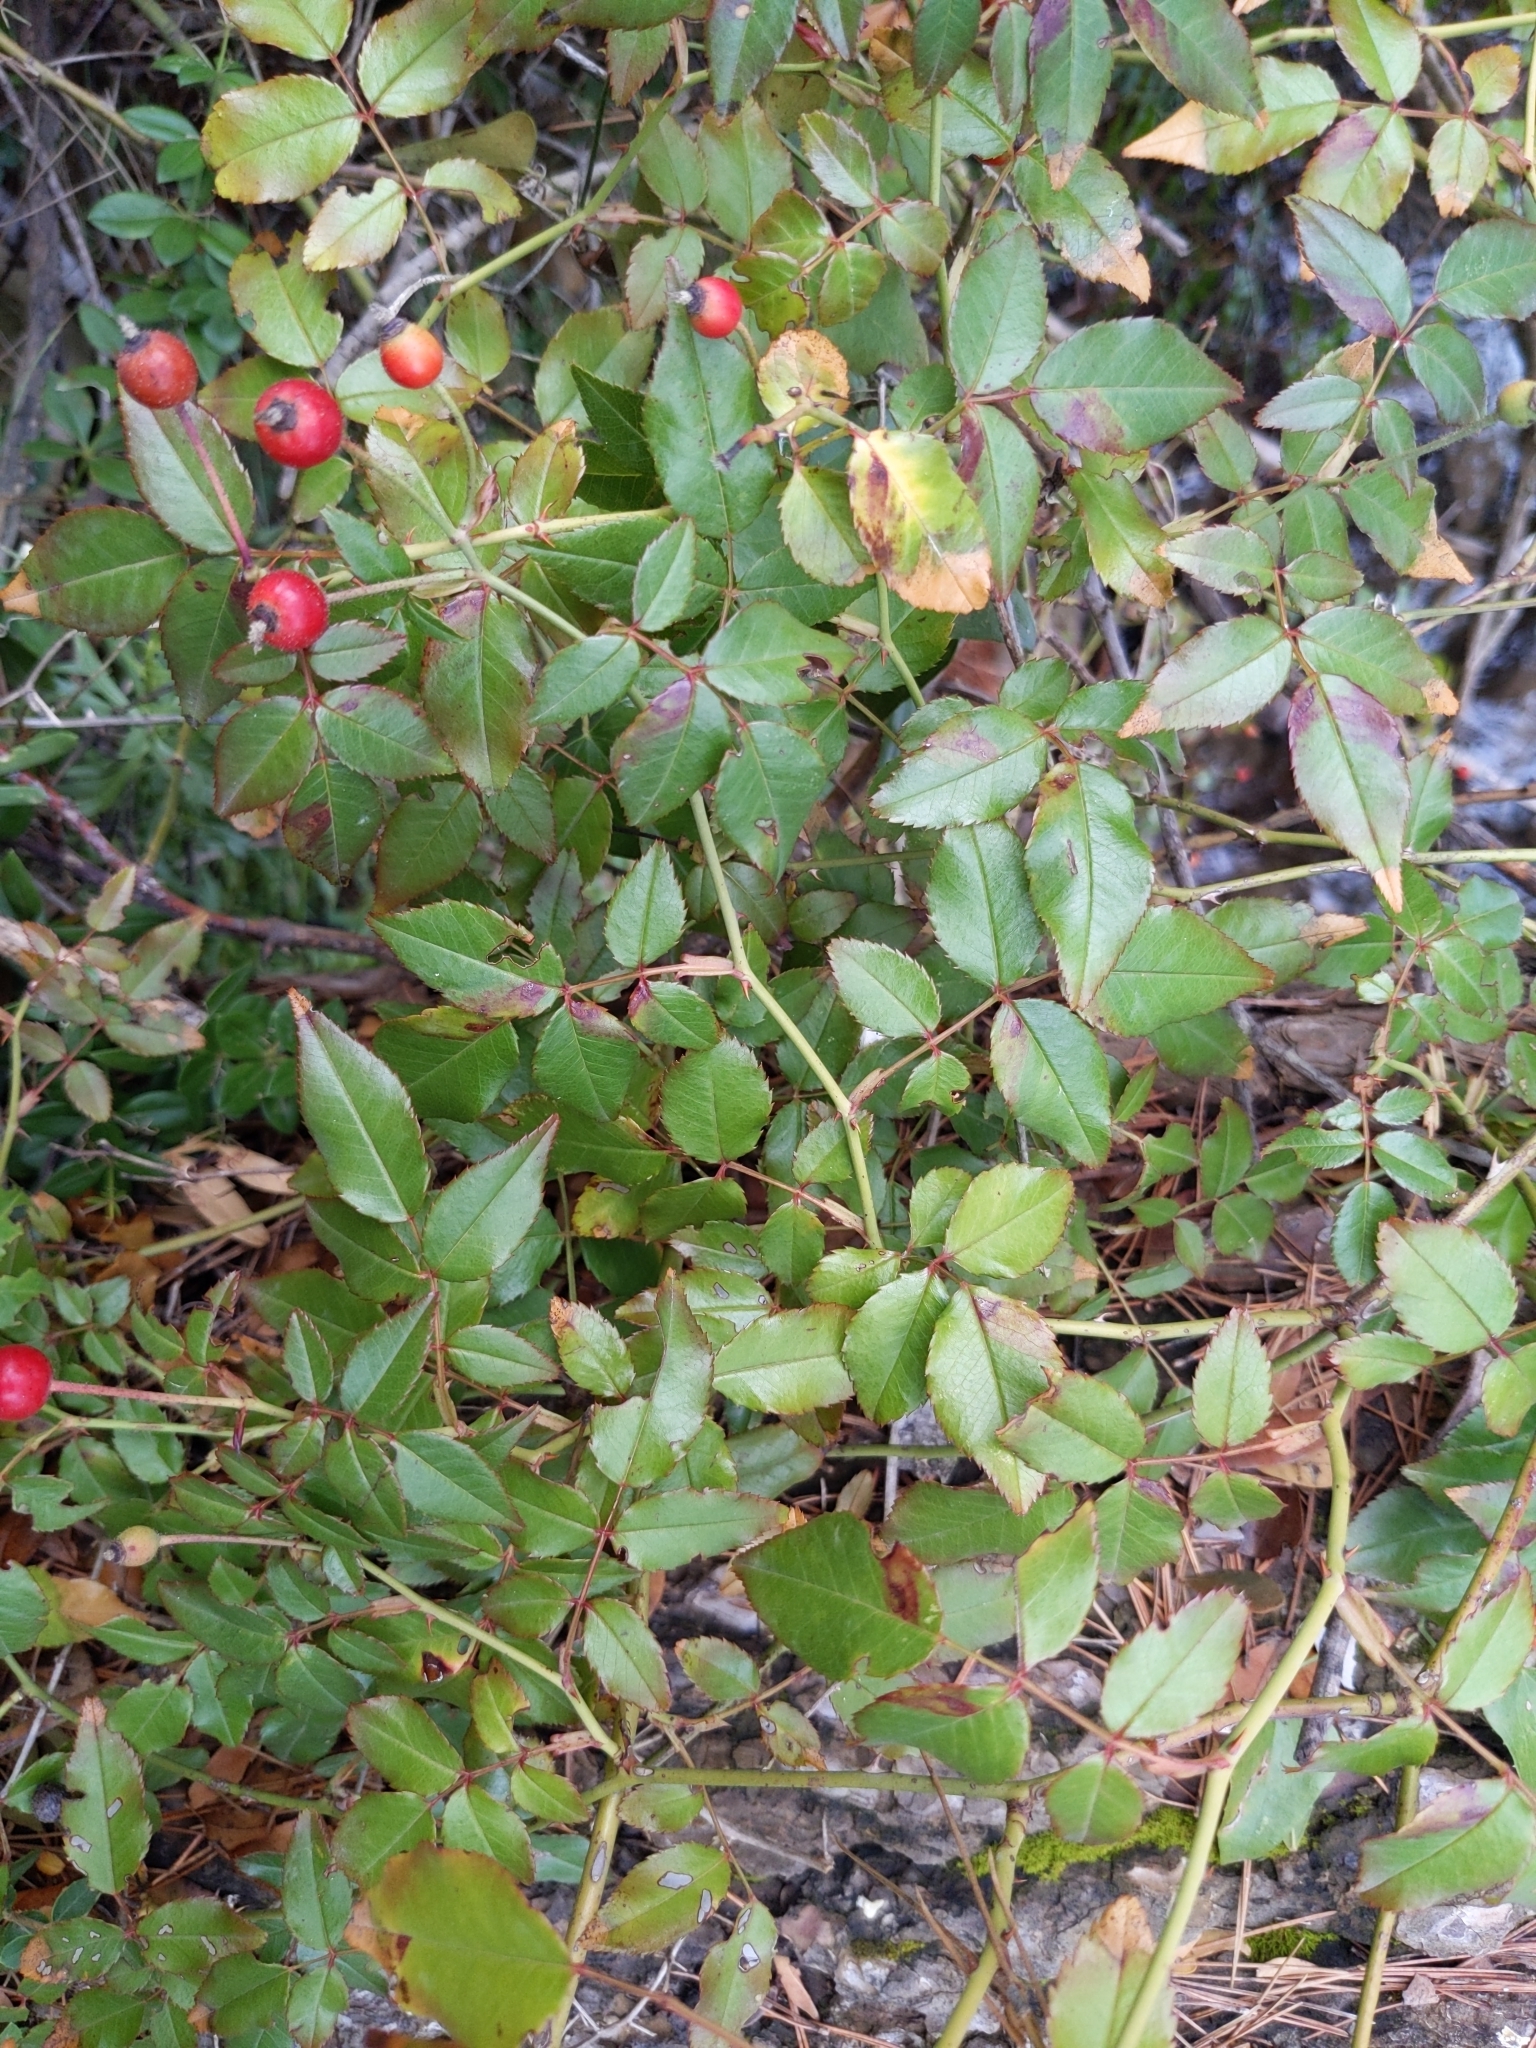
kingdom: Plantae
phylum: Tracheophyta
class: Magnoliopsida
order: Rosales
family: Rosaceae
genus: Rosa
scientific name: Rosa sempervirens
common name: Evergreen rose
